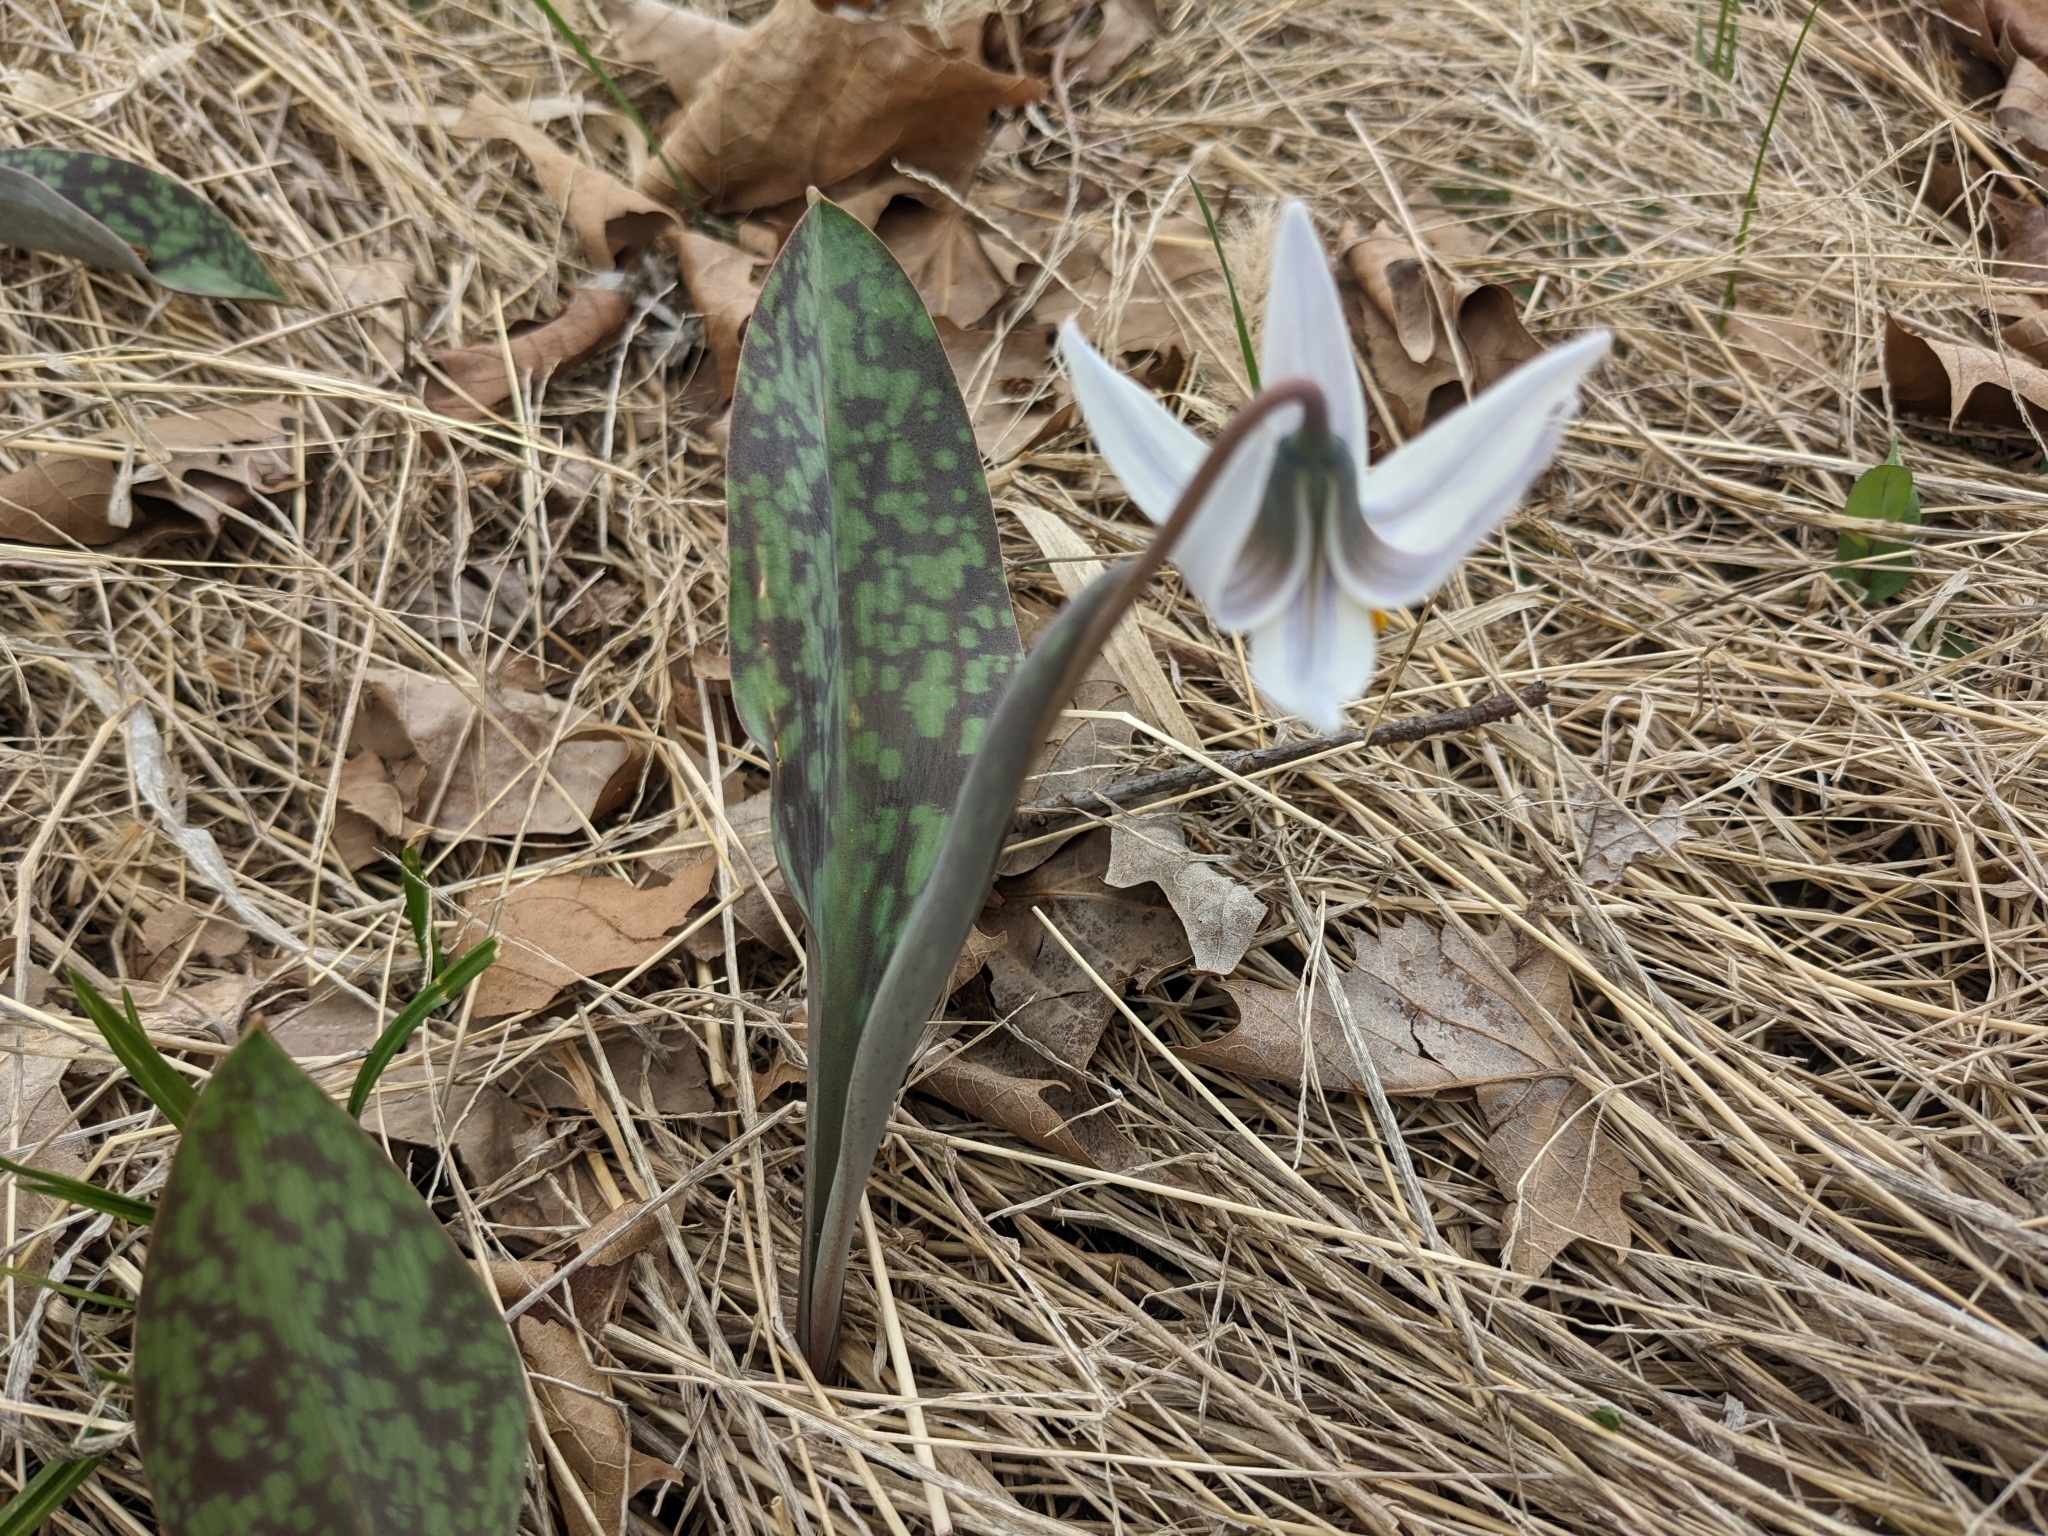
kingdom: Plantae
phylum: Tracheophyta
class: Liliopsida
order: Liliales
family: Liliaceae
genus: Erythronium
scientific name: Erythronium albidum
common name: White trout-lily
